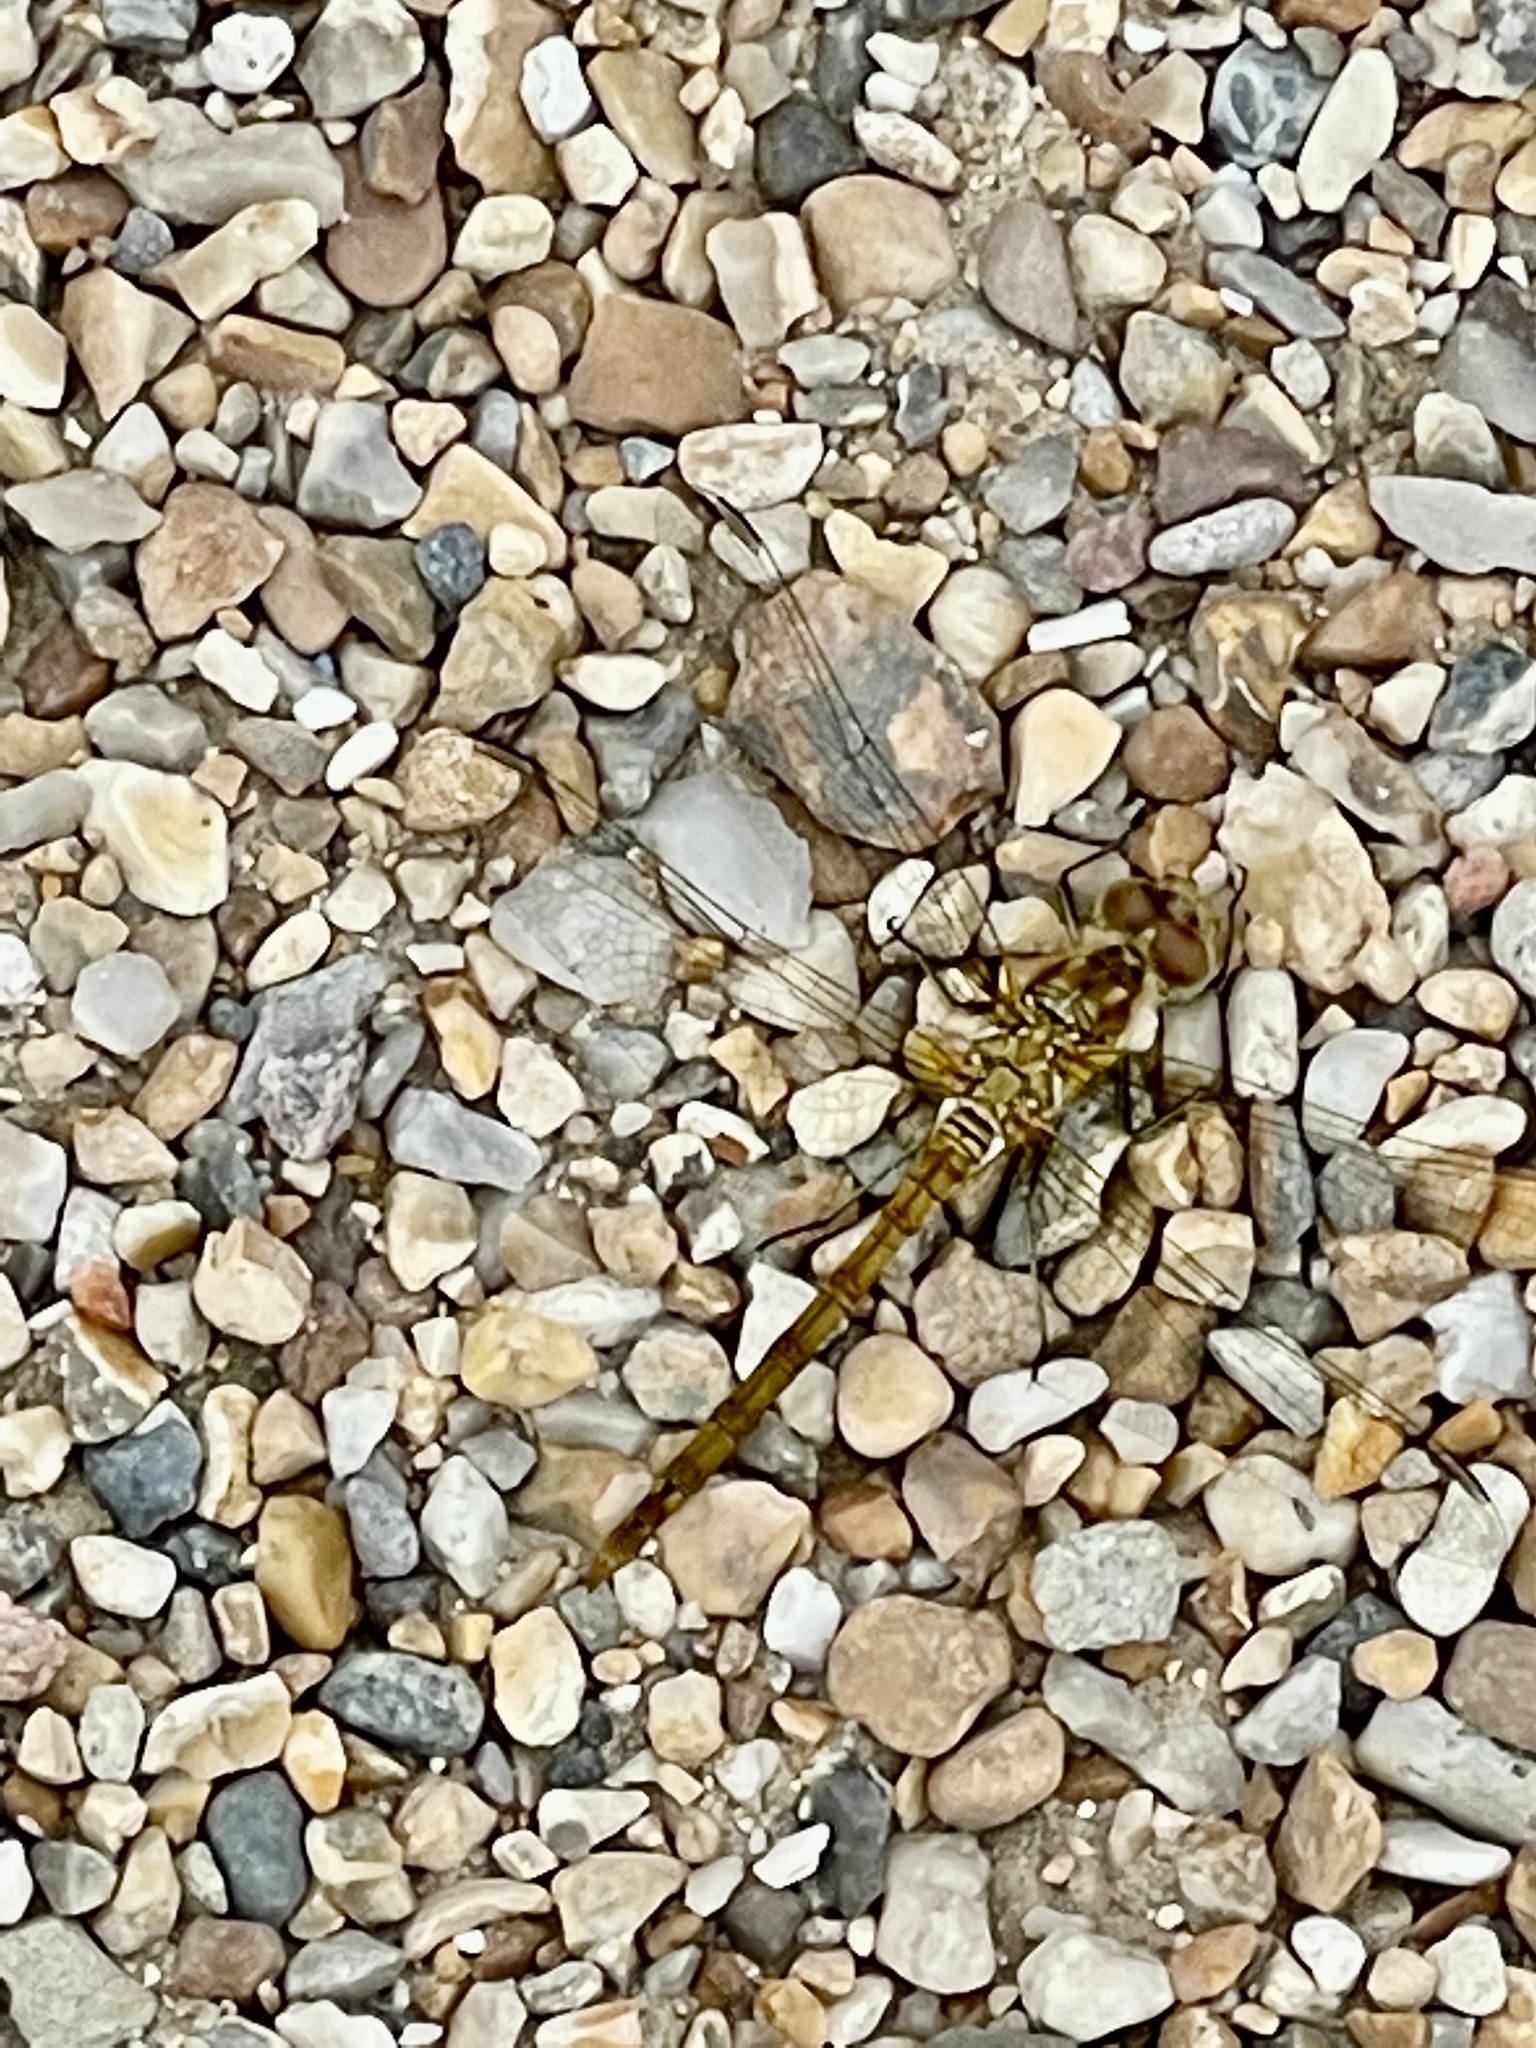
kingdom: Animalia
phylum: Arthropoda
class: Insecta
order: Odonata
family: Libellulidae
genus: Sympetrum
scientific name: Sympetrum striolatum
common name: Common darter
